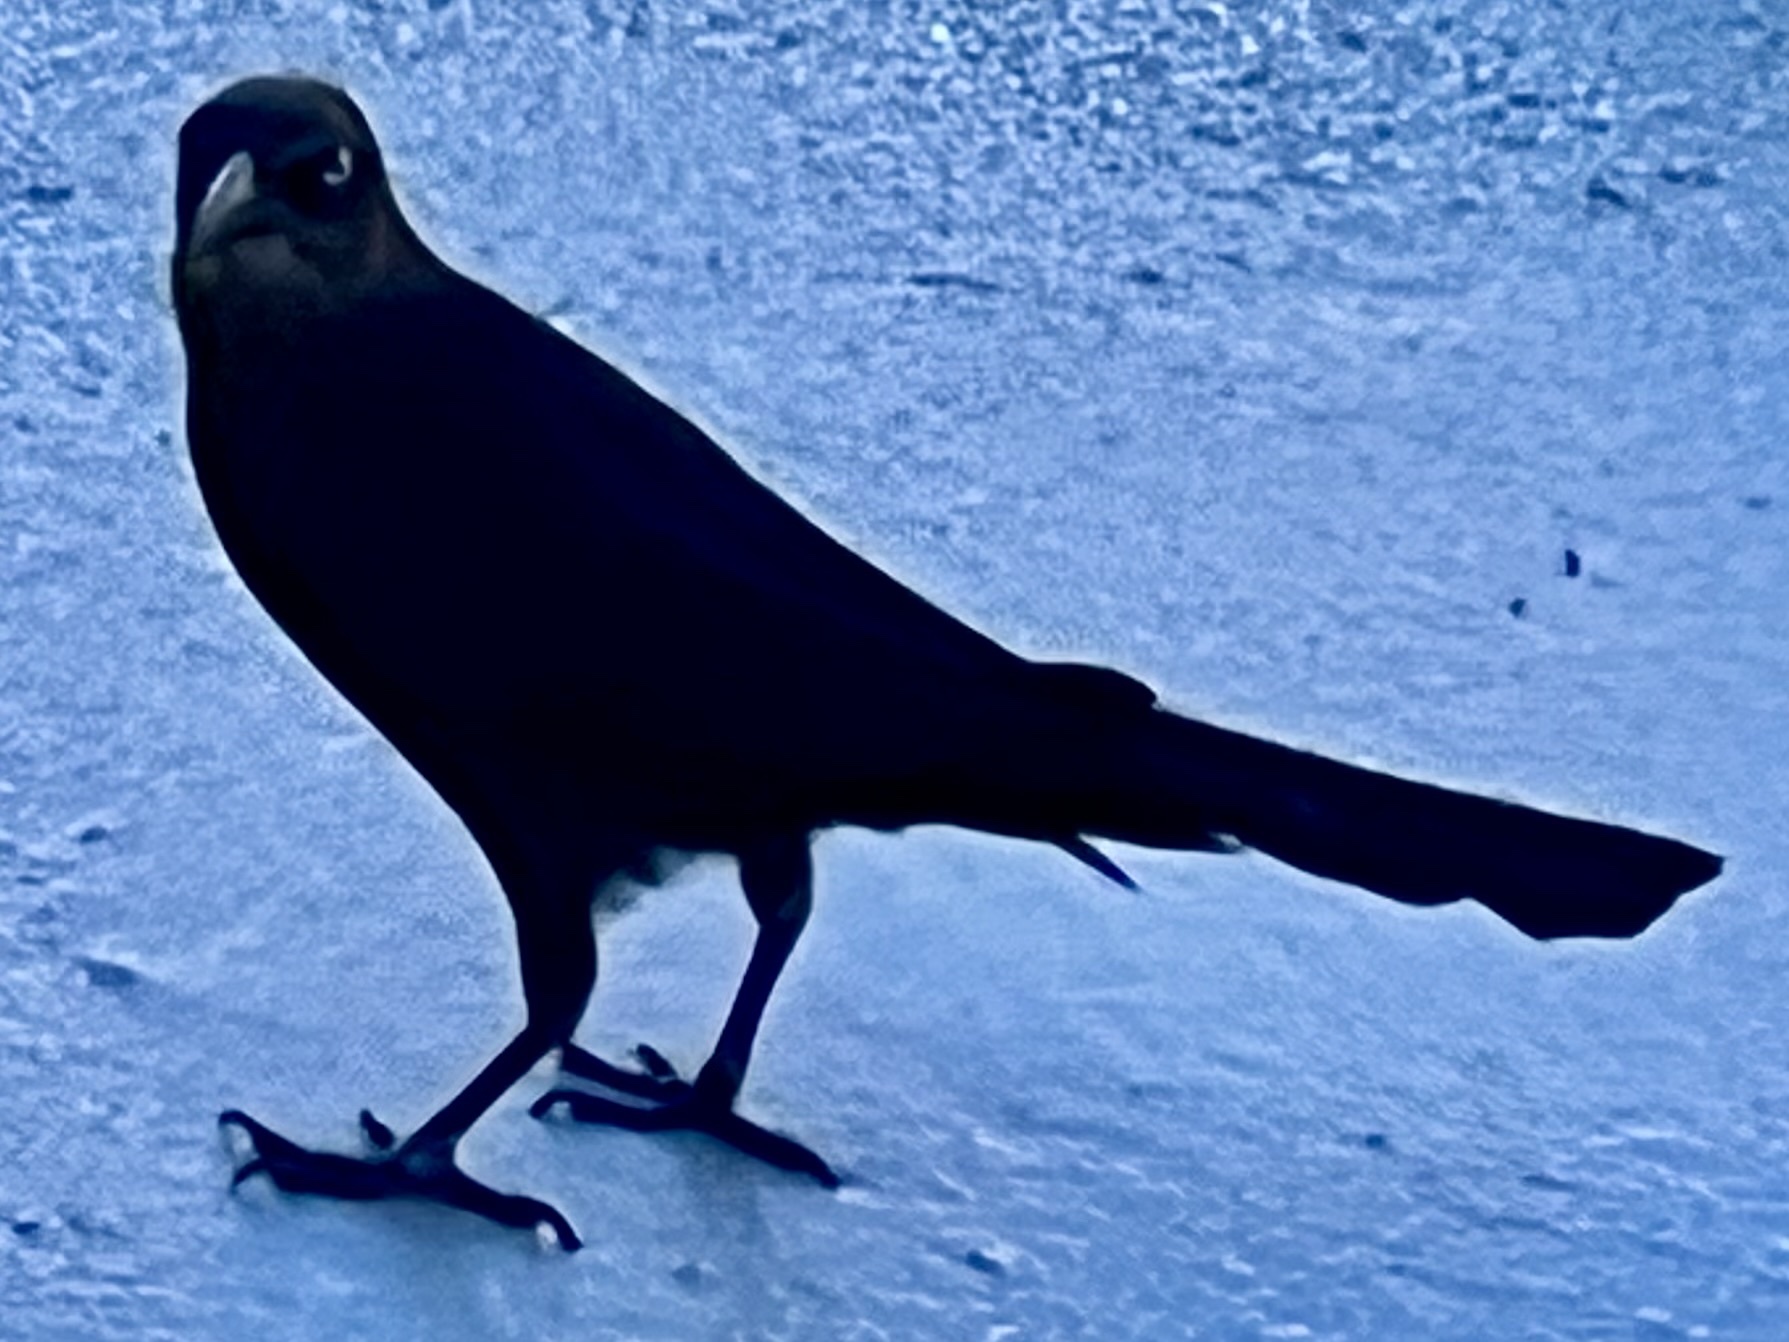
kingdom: Animalia
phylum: Chordata
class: Aves
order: Passeriformes
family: Icteridae
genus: Quiscalus
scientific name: Quiscalus mexicanus
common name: Great-tailed grackle
